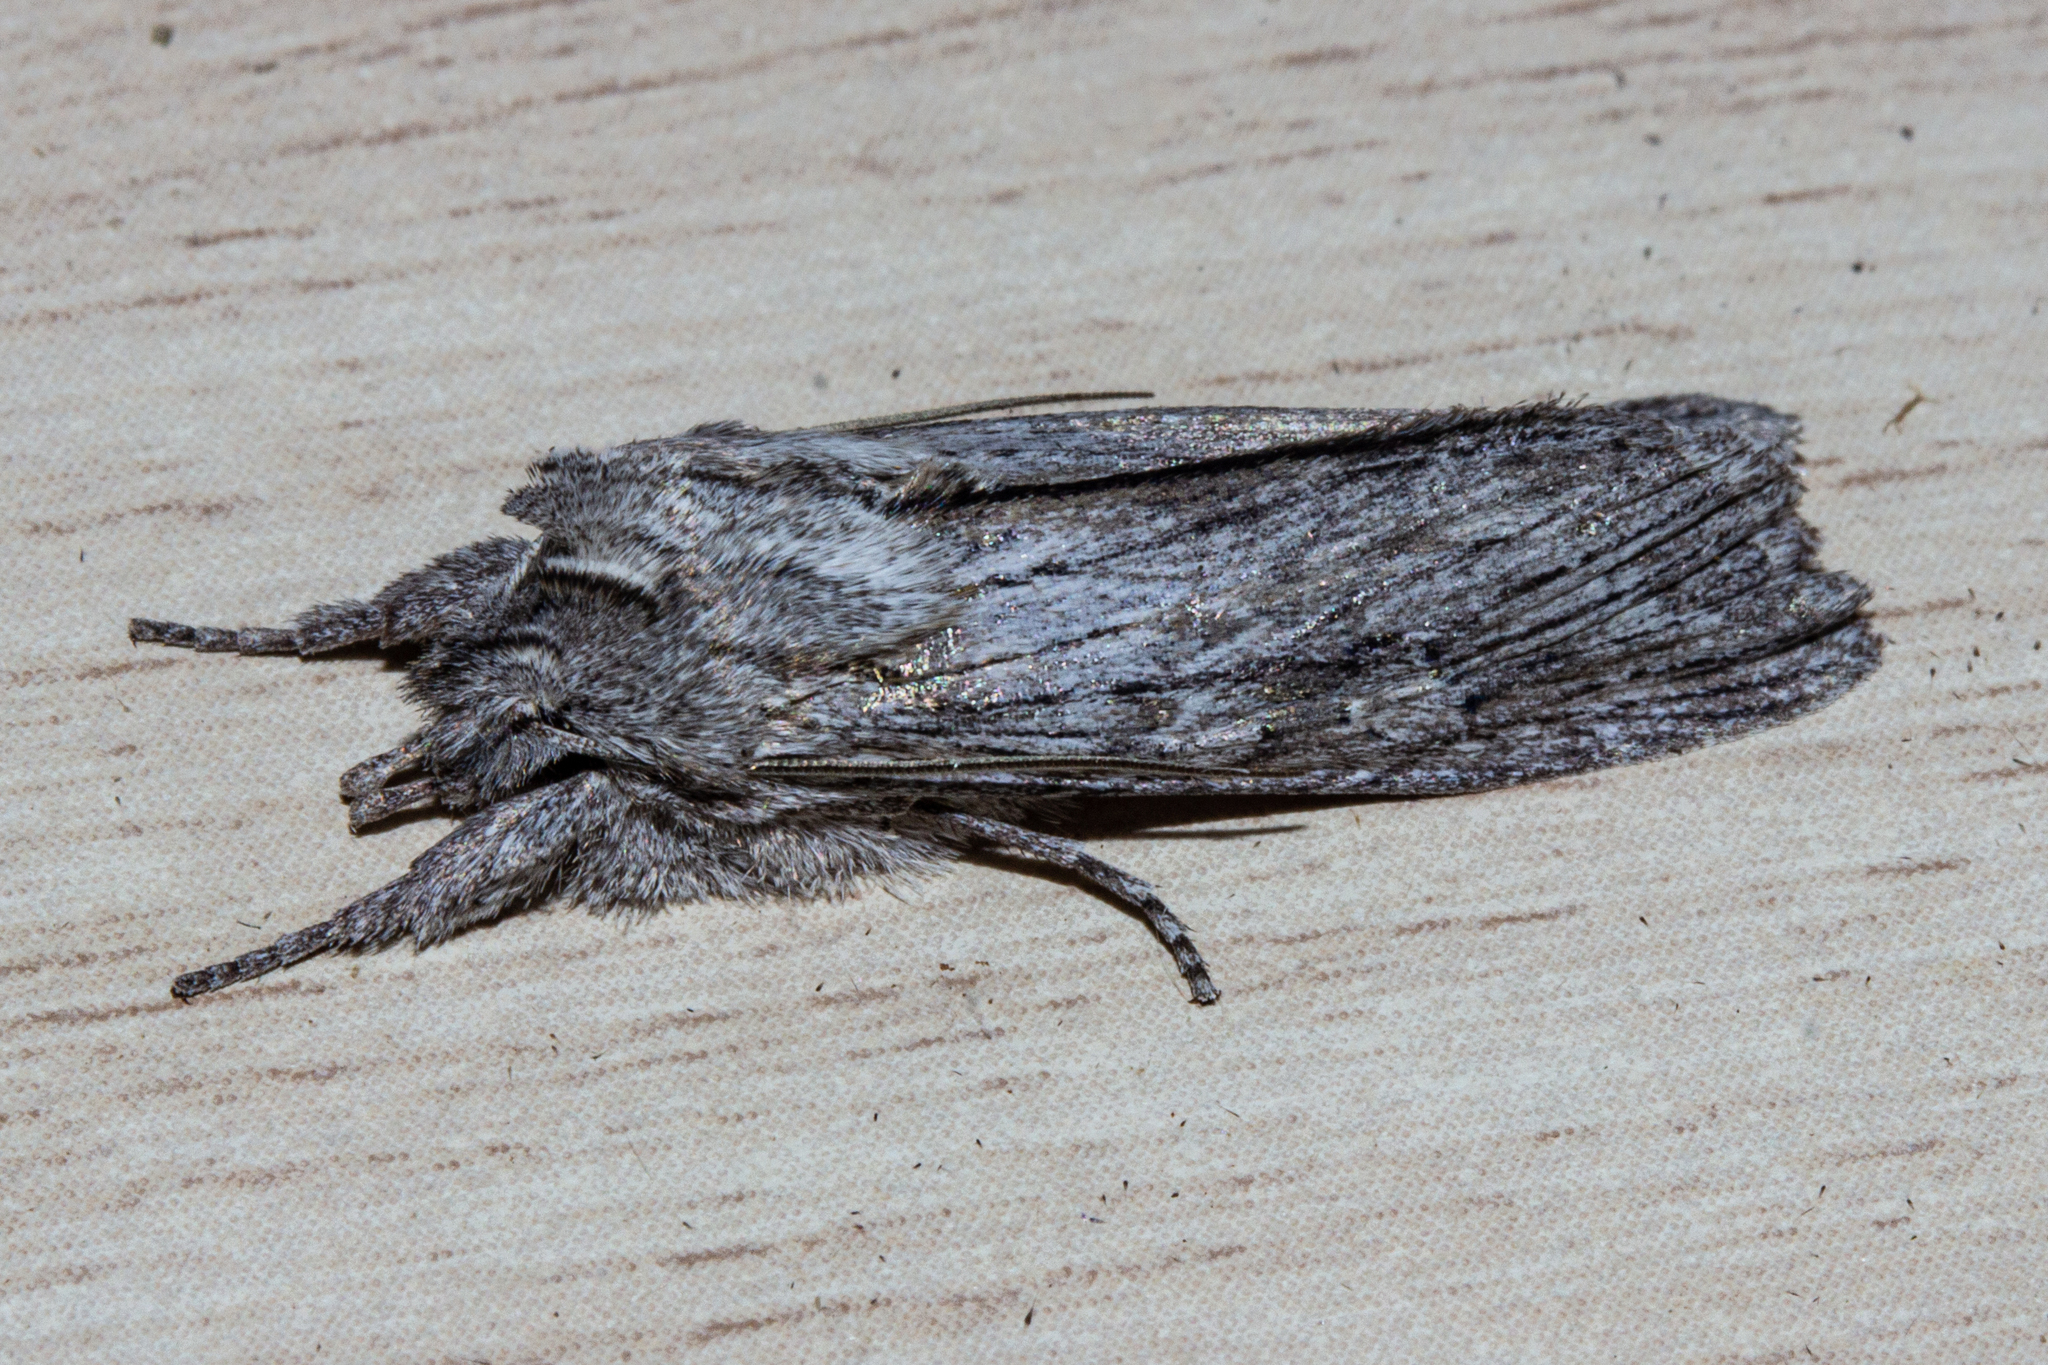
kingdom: Animalia
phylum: Arthropoda
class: Insecta
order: Lepidoptera
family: Noctuidae
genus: Physetica
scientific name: Physetica phricias
